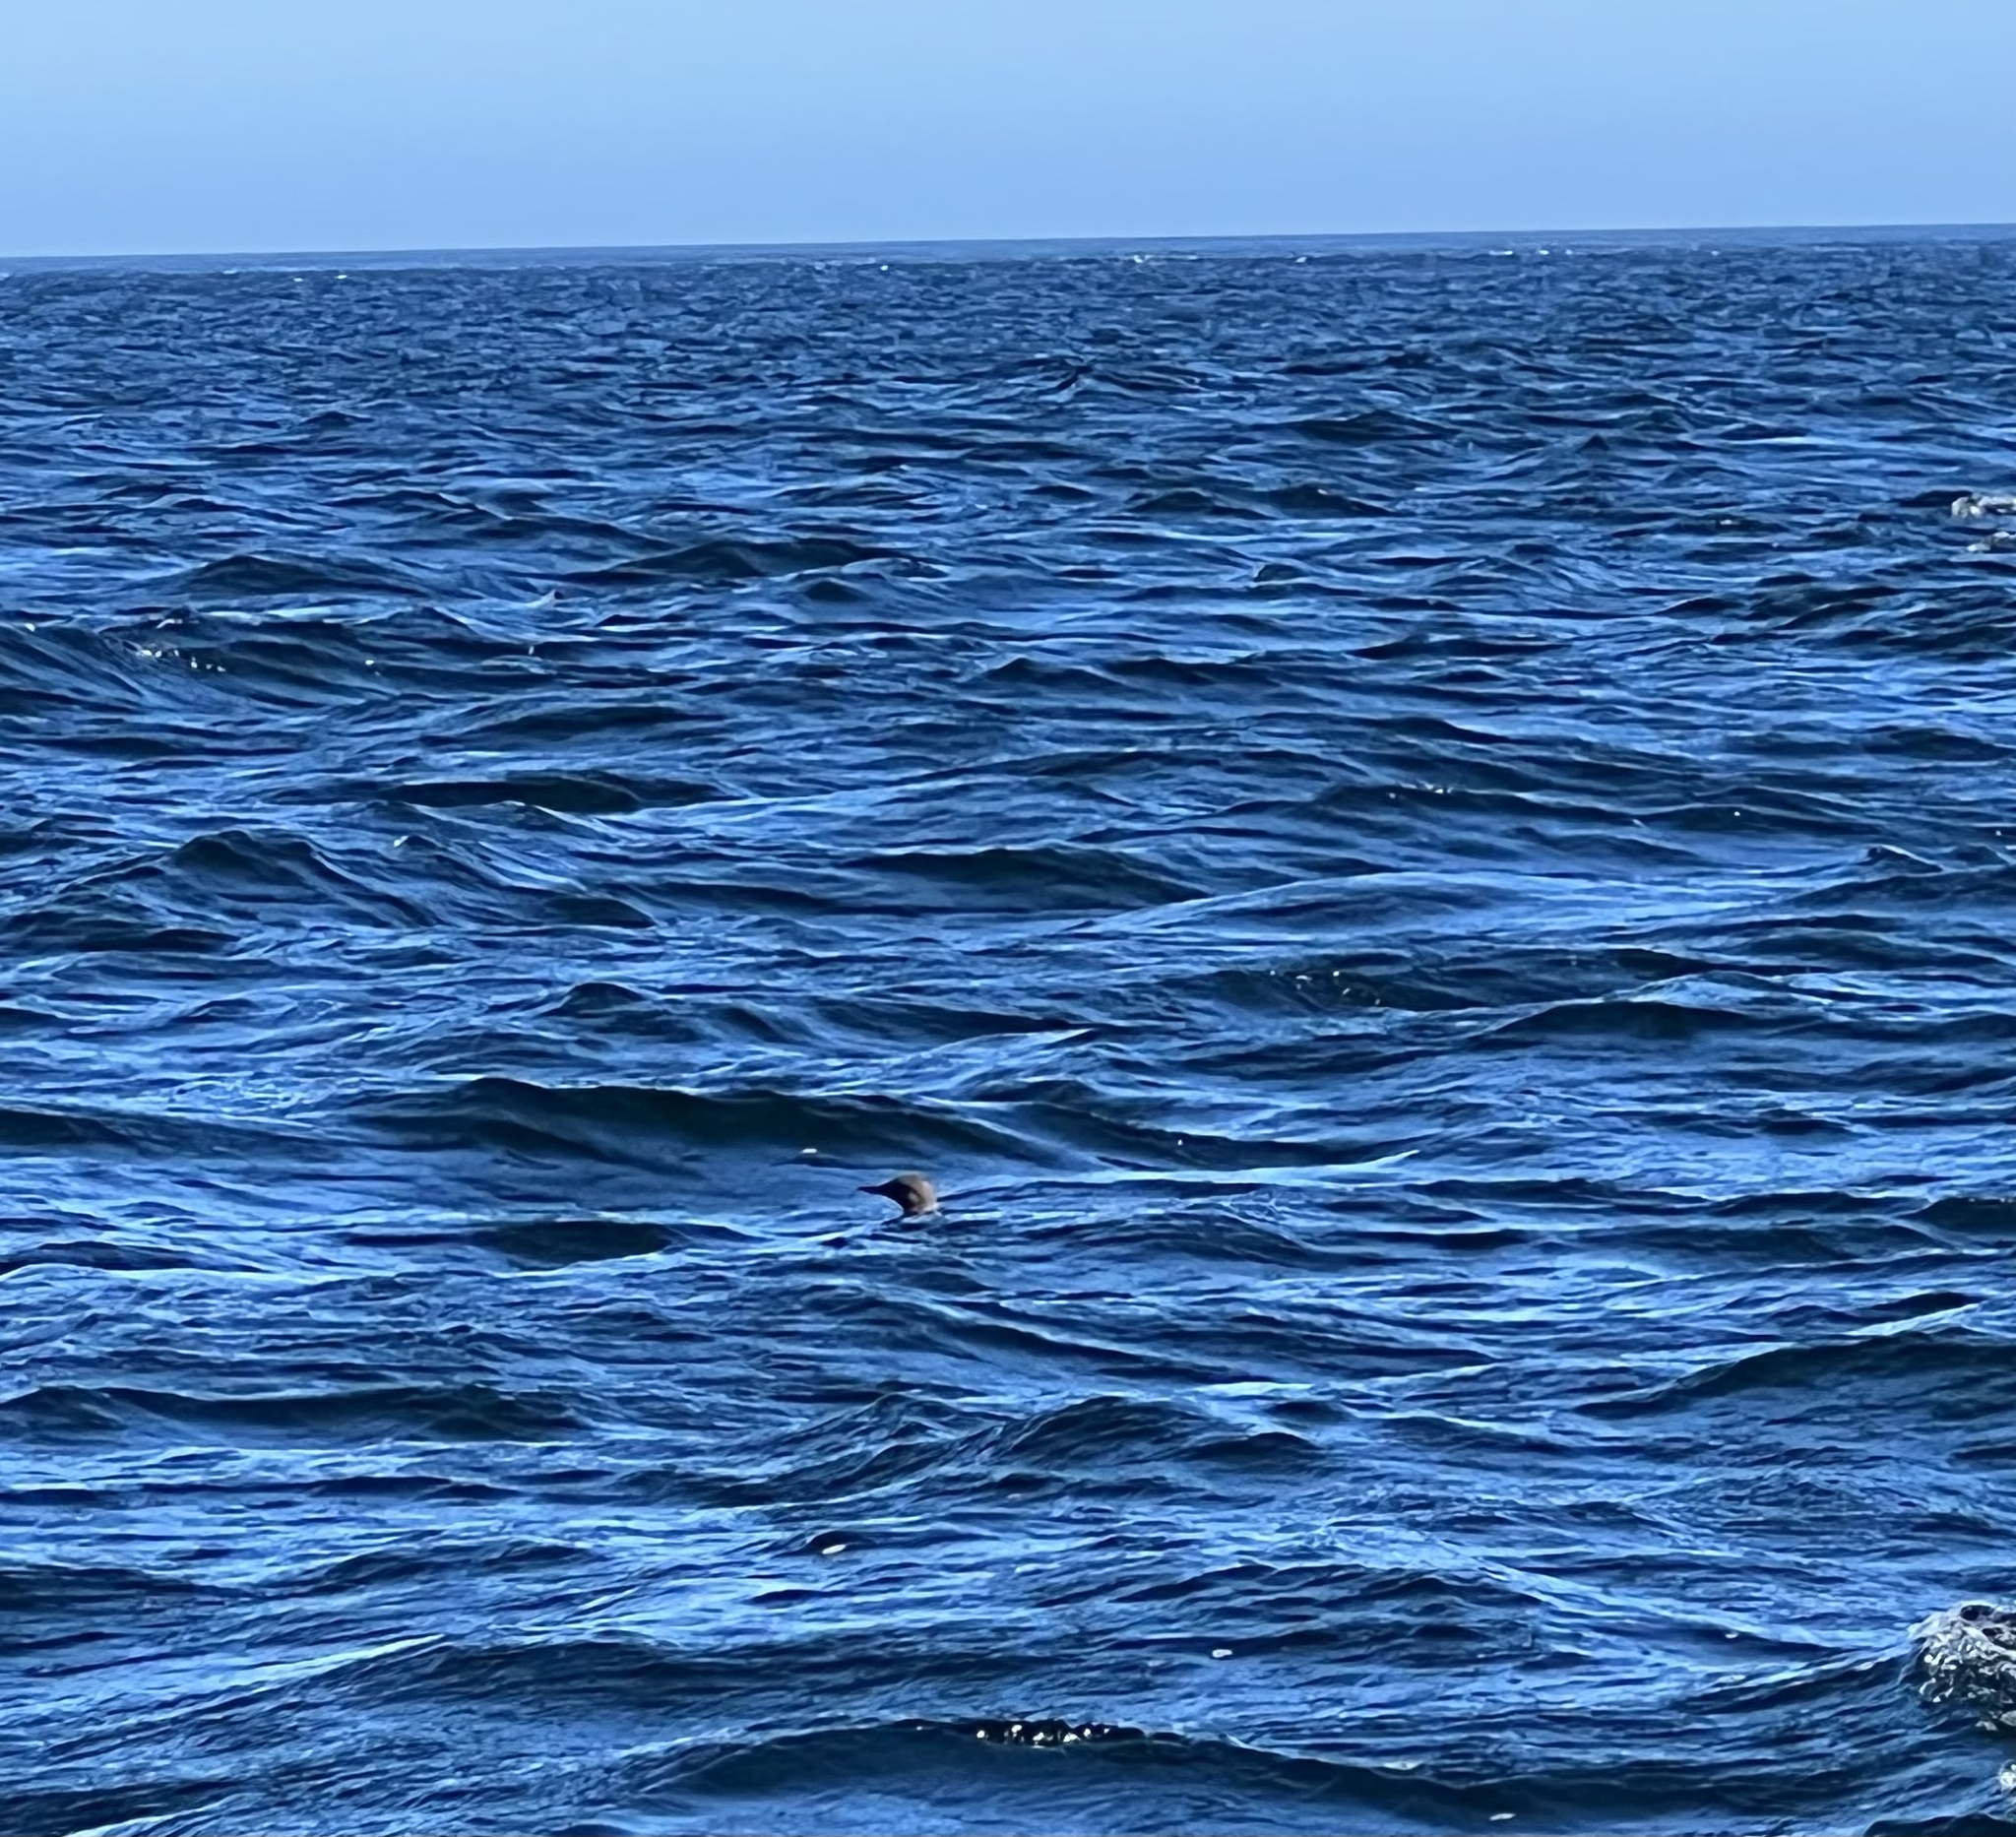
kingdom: Animalia
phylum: Chordata
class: Aves
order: Charadriiformes
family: Alcidae
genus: Uria
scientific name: Uria aalge
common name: Common murre
